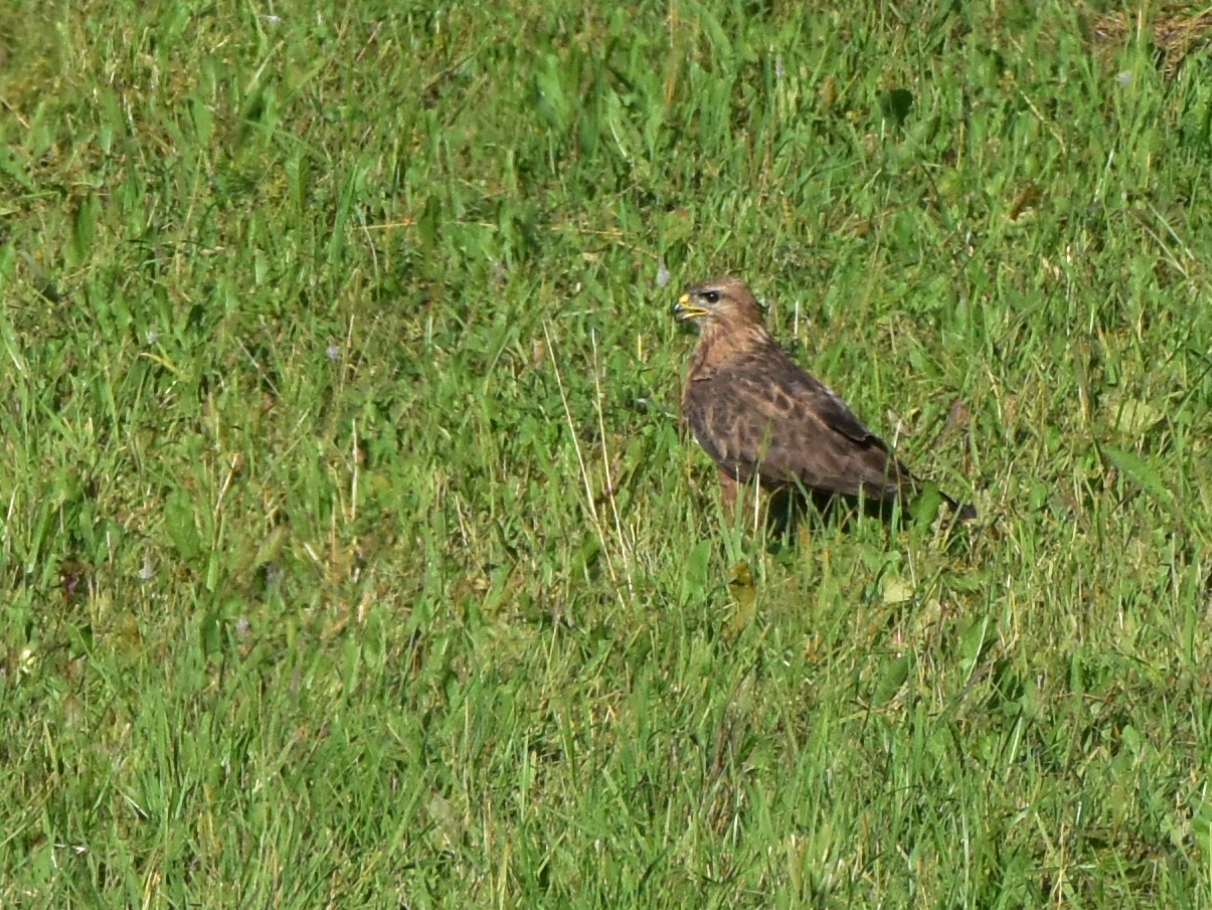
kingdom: Animalia
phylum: Chordata
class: Aves
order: Accipitriformes
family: Accipitridae
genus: Buteo
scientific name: Buteo buteo
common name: Common buzzard
